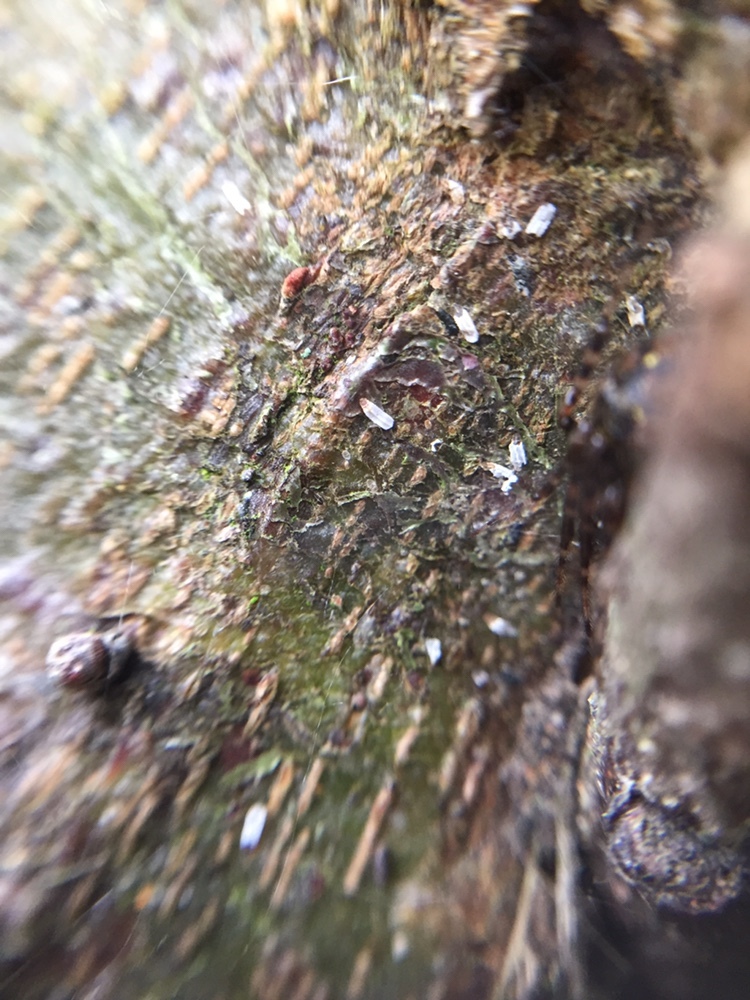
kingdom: Animalia
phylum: Arthropoda
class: Insecta
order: Hemiptera
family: Diaspididae
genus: Trullifiorinia
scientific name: Trullifiorinia acaciae
